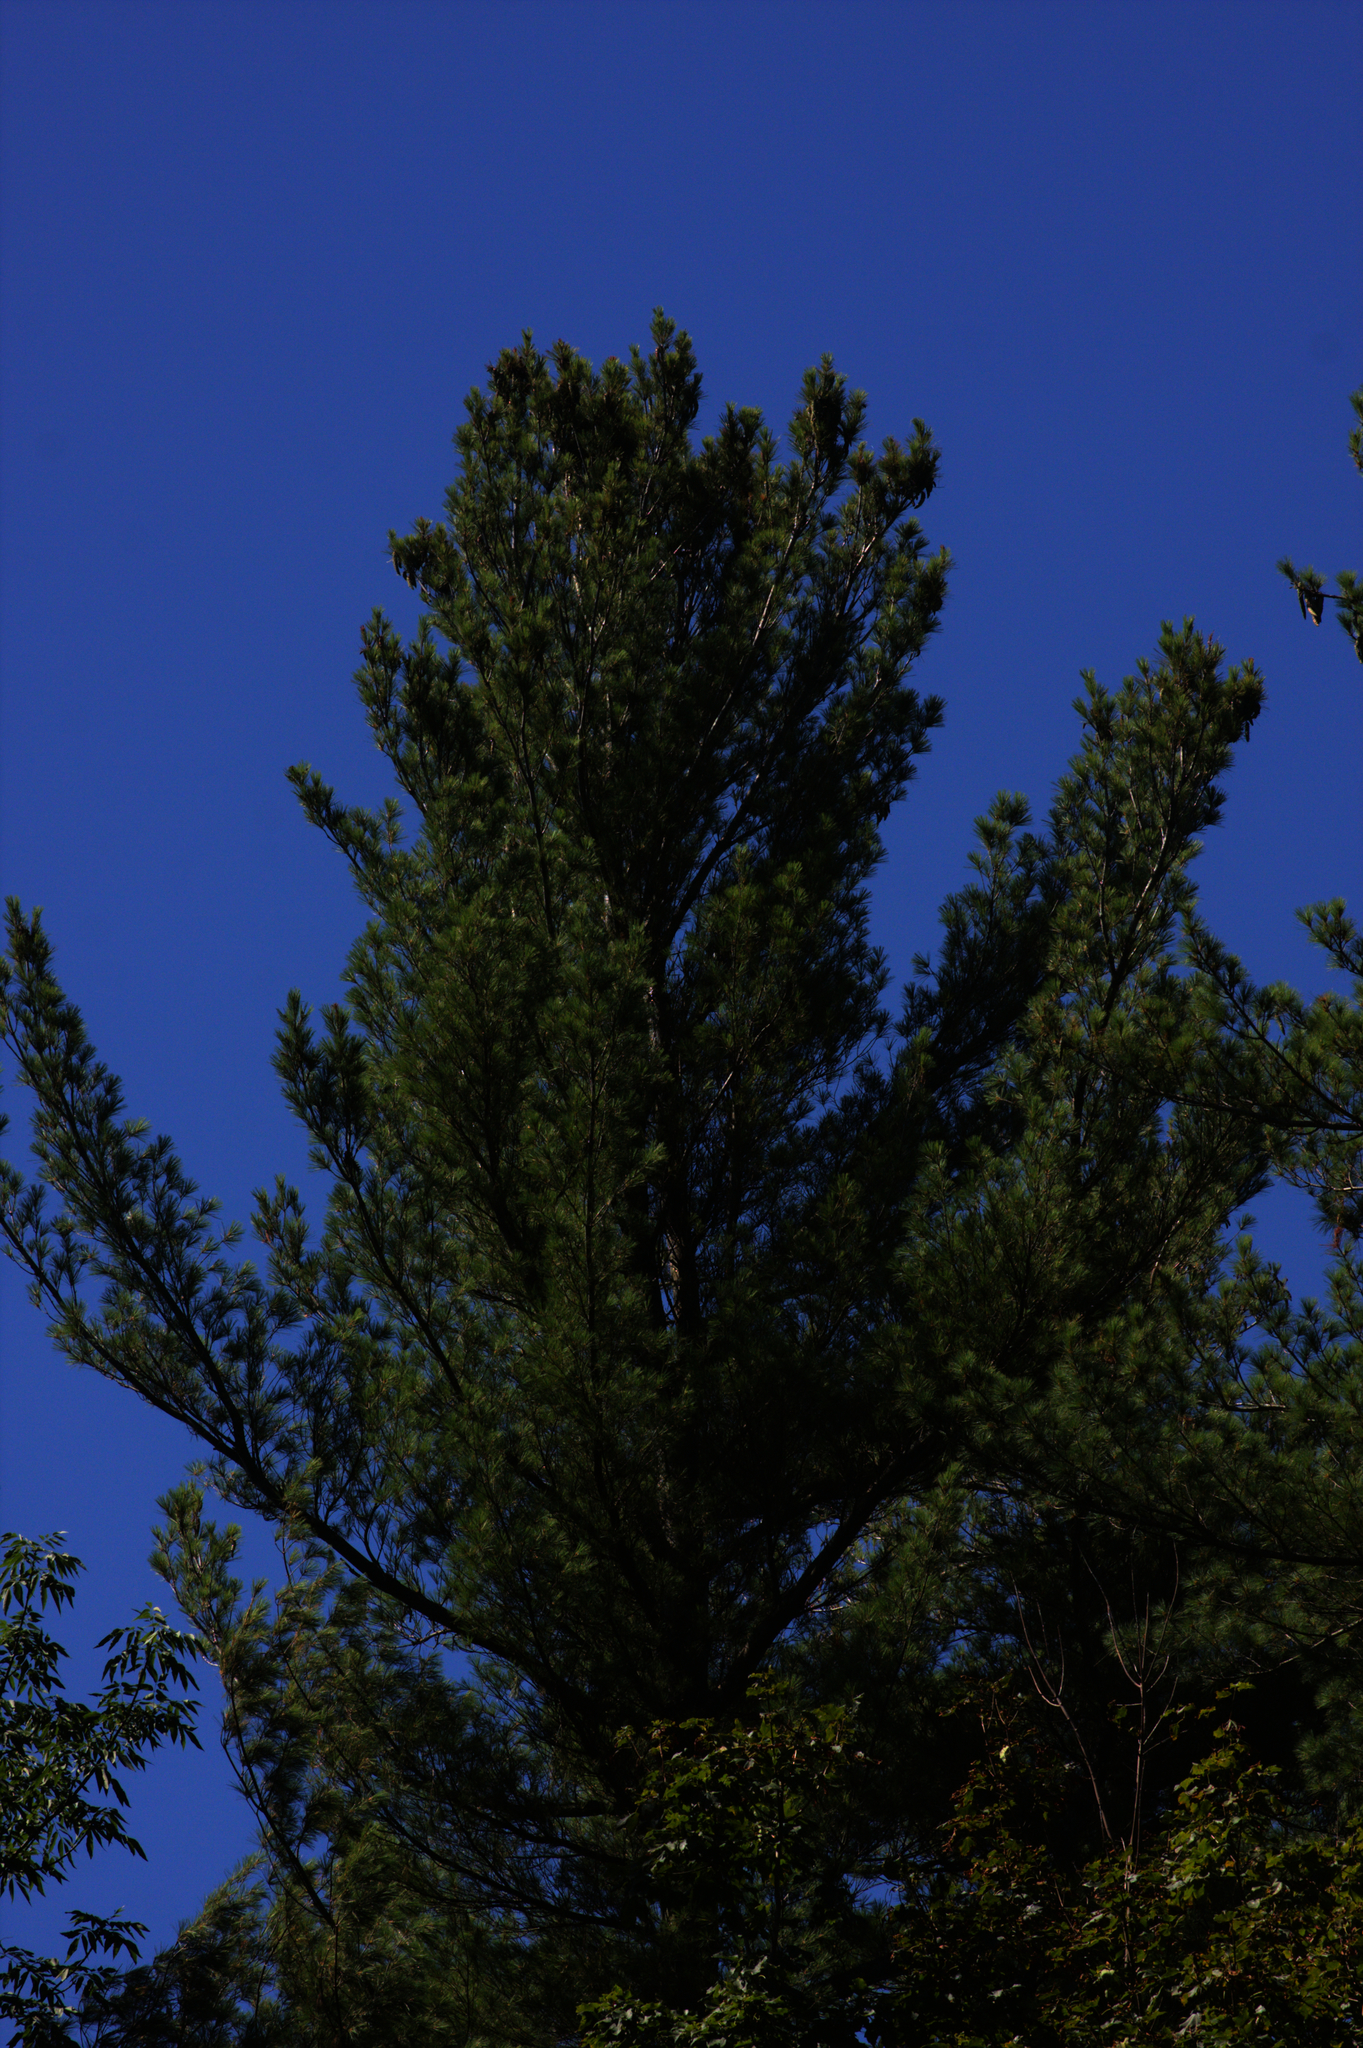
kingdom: Plantae
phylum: Tracheophyta
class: Pinopsida
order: Pinales
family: Pinaceae
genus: Pinus
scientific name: Pinus strobus
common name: Weymouth pine
